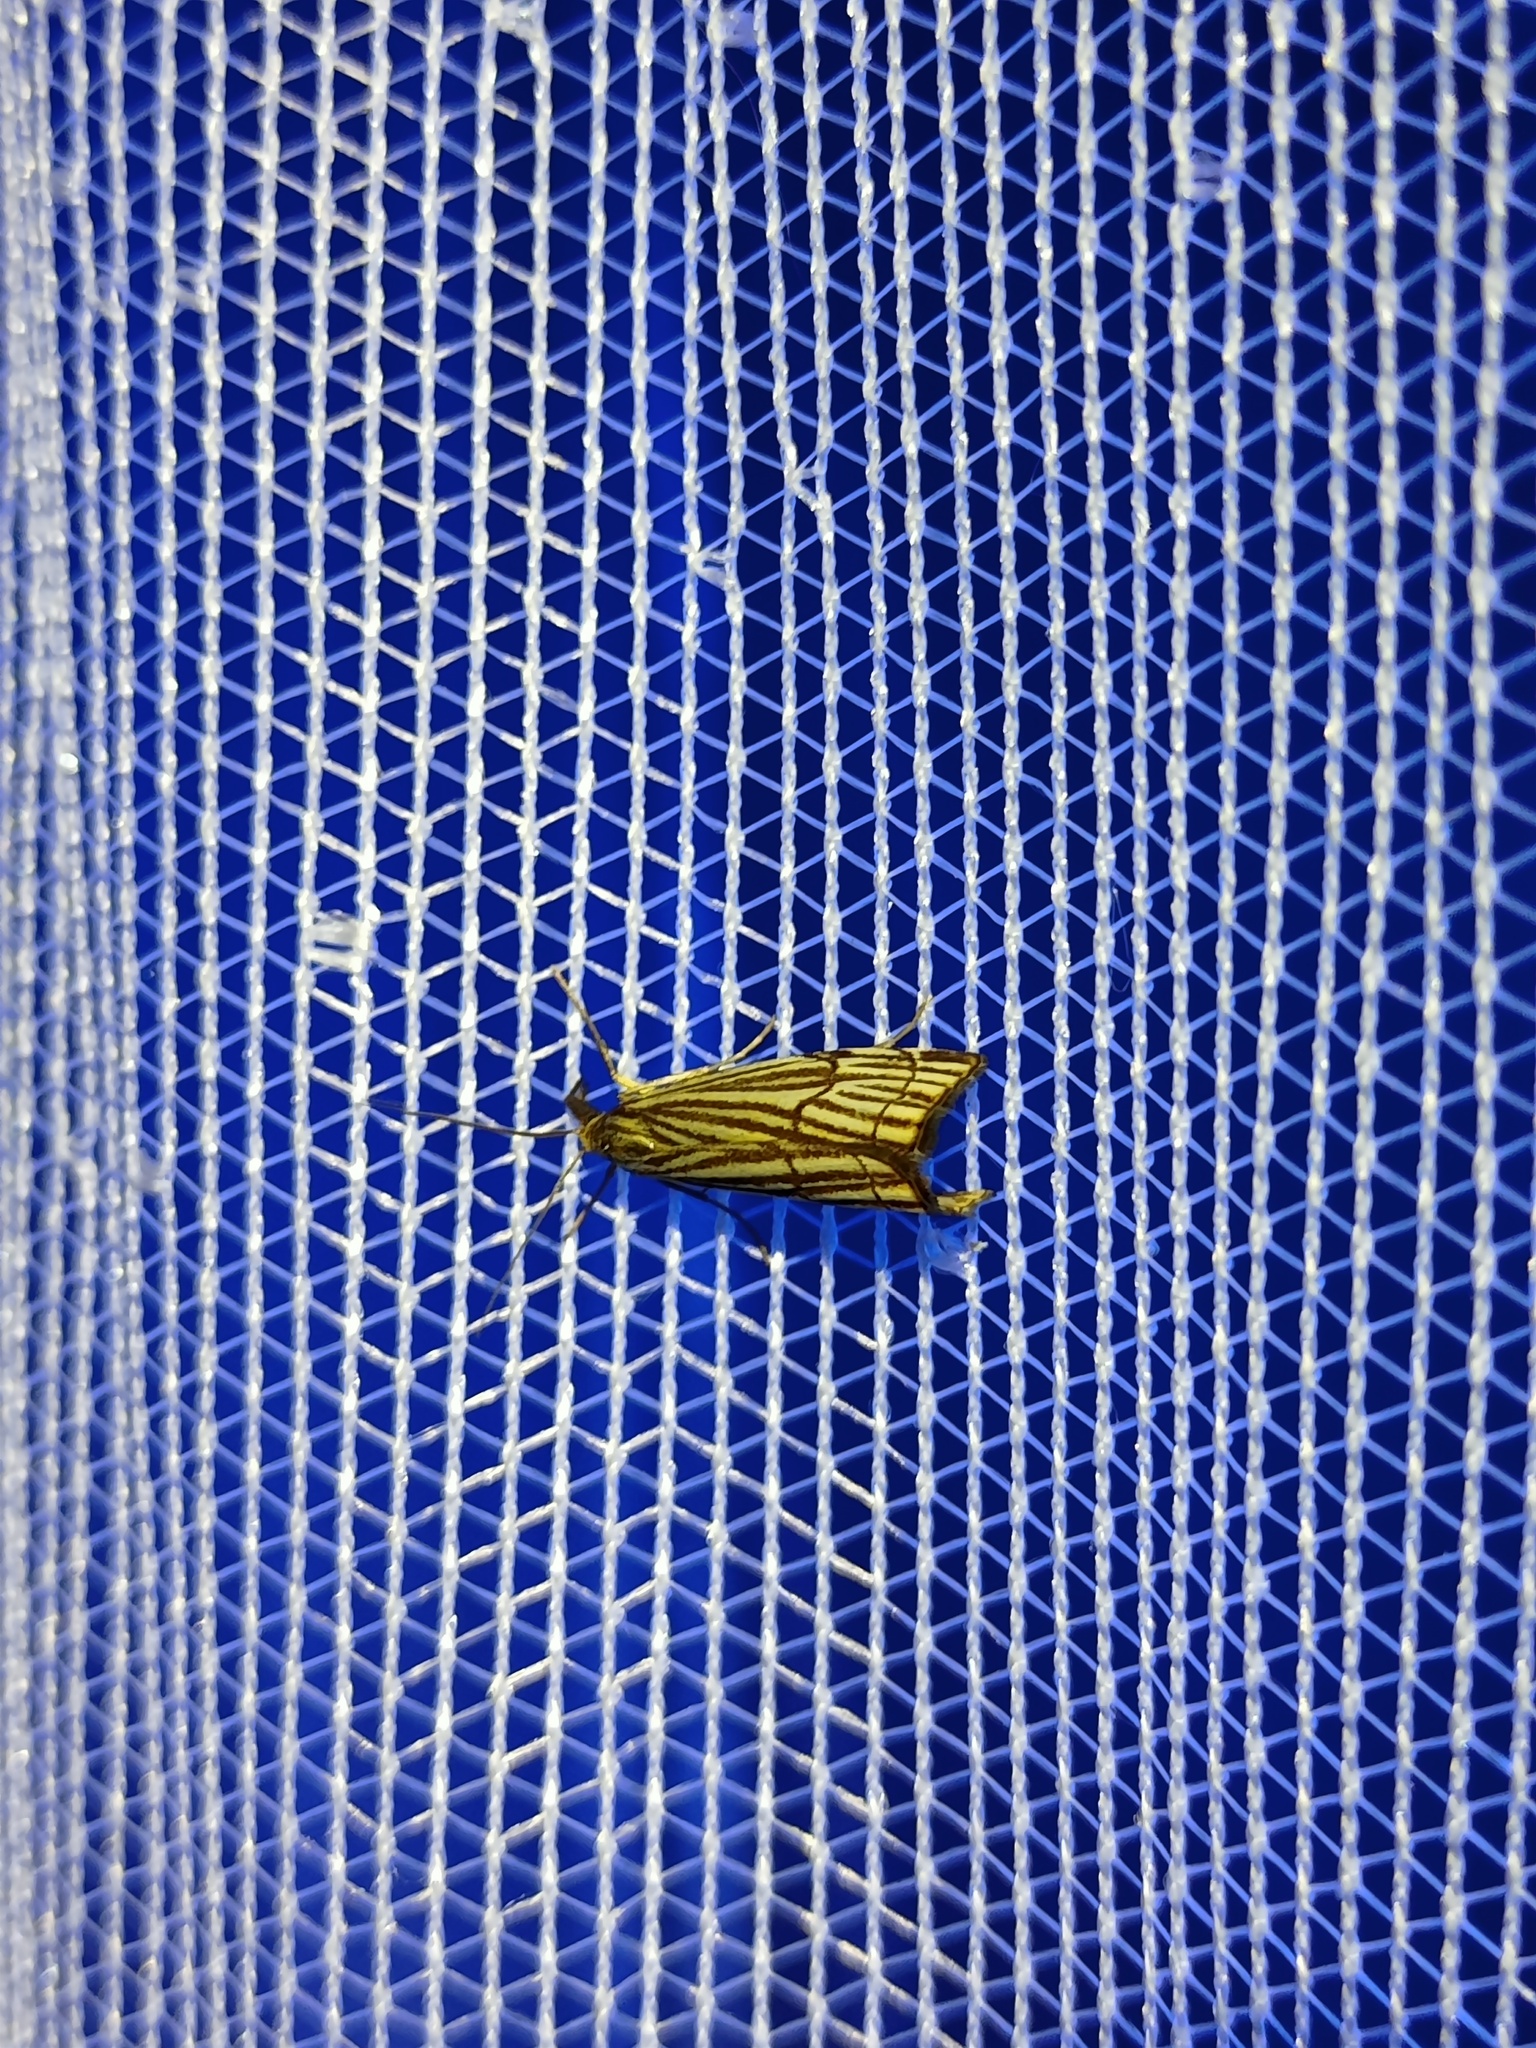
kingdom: Animalia
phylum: Arthropoda
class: Insecta
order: Lepidoptera
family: Crambidae
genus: Chrysocrambus
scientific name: Chrysocrambus Chrysocramboides craterellus
